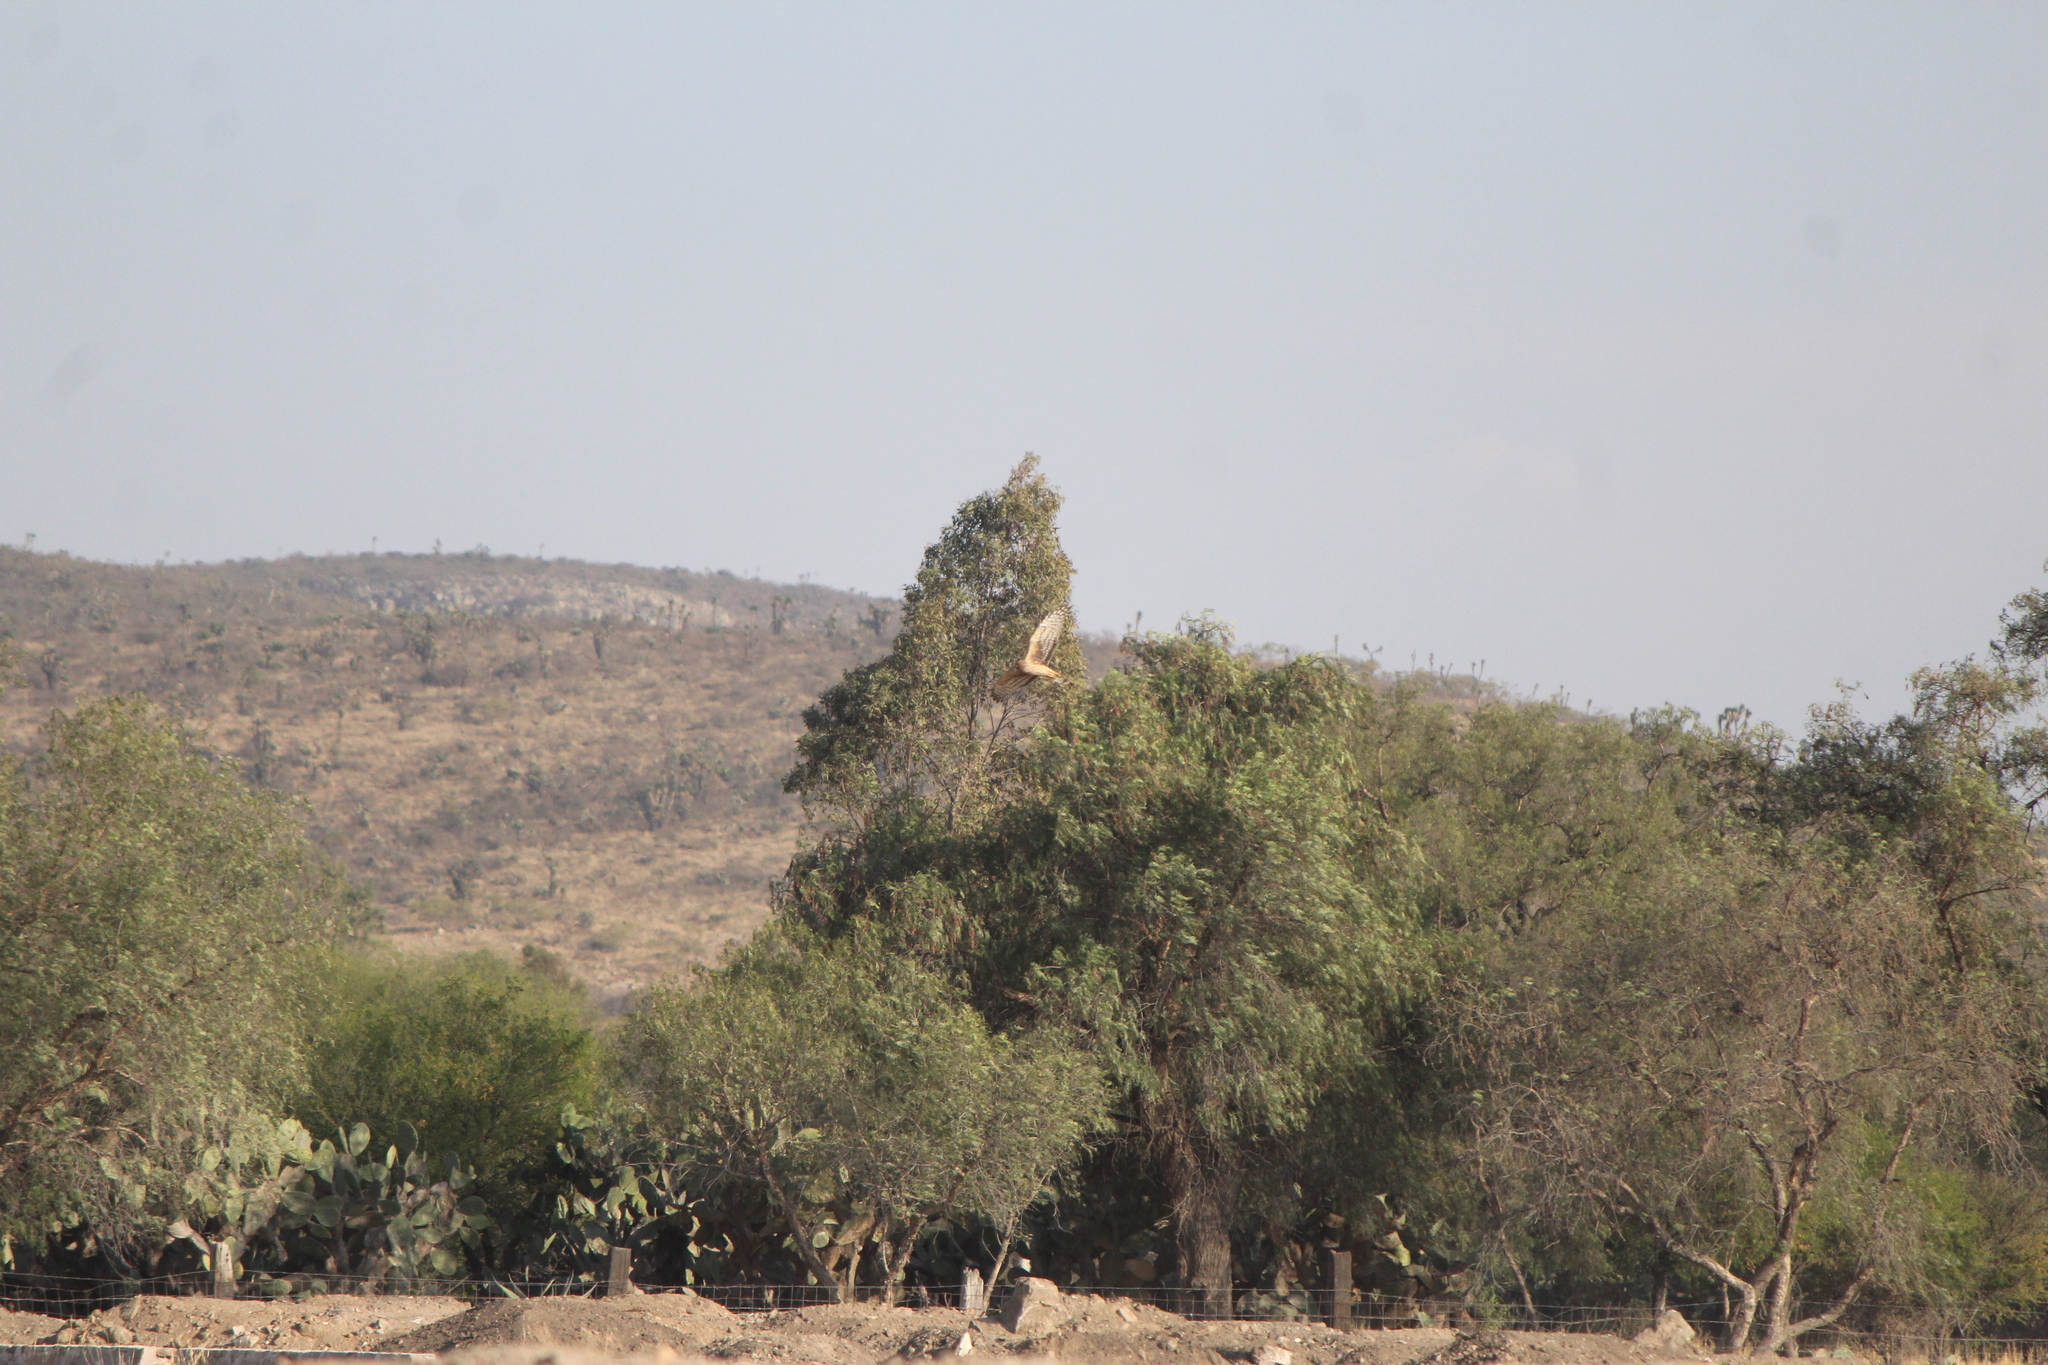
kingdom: Animalia
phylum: Chordata
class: Aves
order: Accipitriformes
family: Accipitridae
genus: Circus
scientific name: Circus cyaneus
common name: Hen harrier
